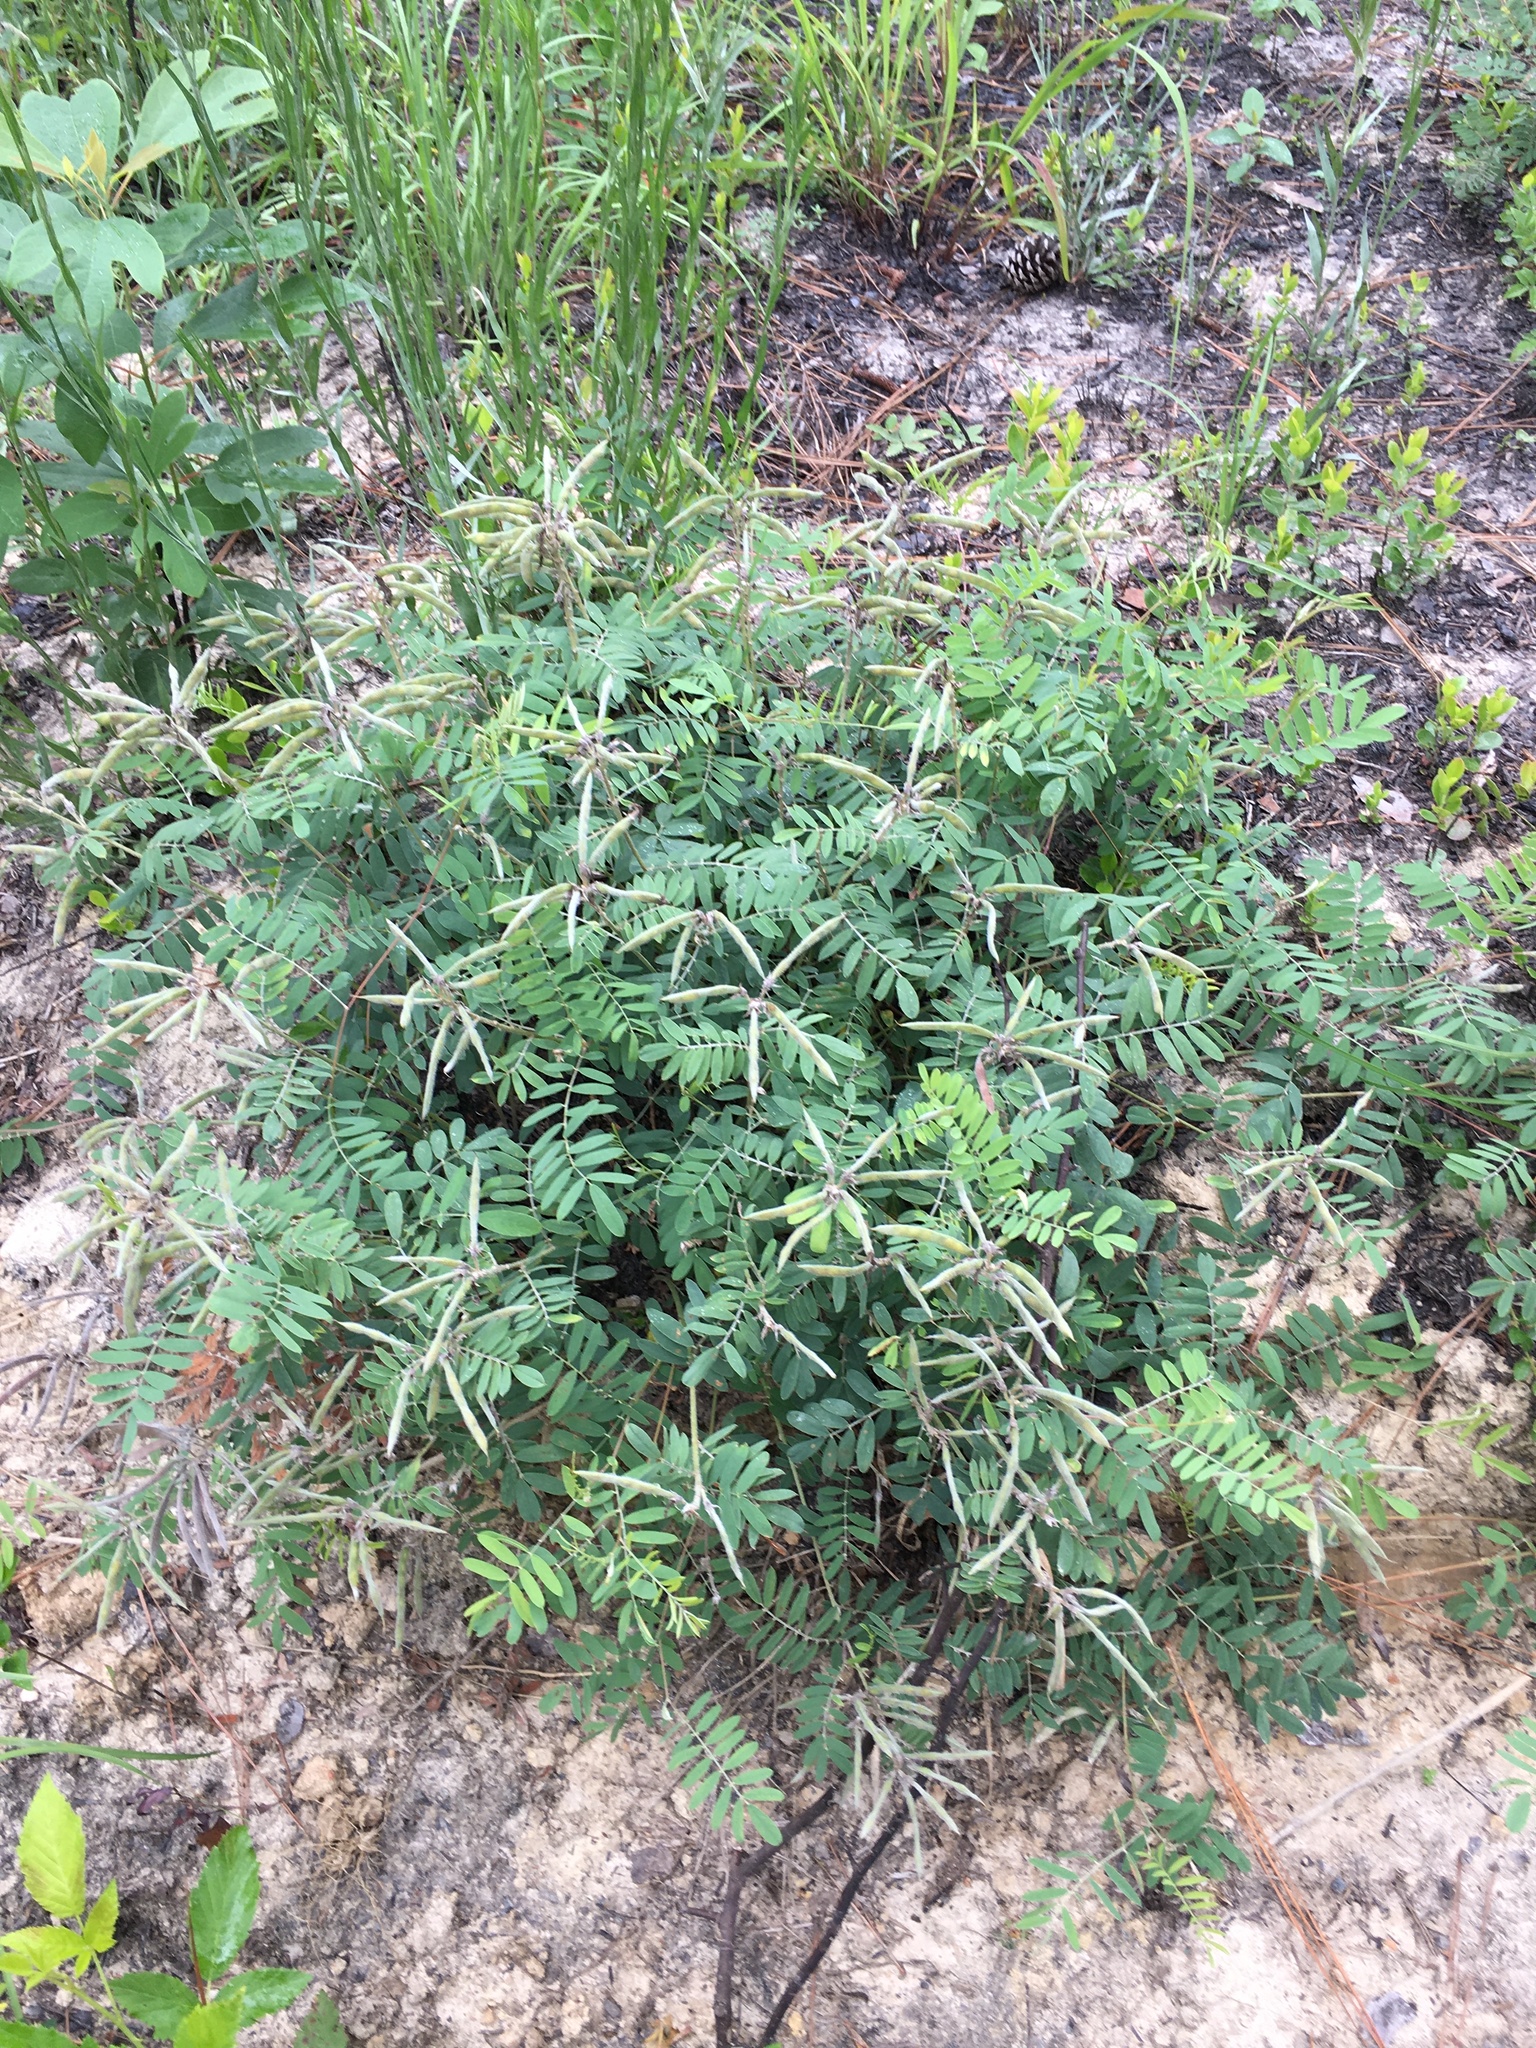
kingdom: Plantae
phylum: Tracheophyta
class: Magnoliopsida
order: Fabales
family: Fabaceae
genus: Tephrosia
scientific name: Tephrosia virginiana
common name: Rabbit-pea
